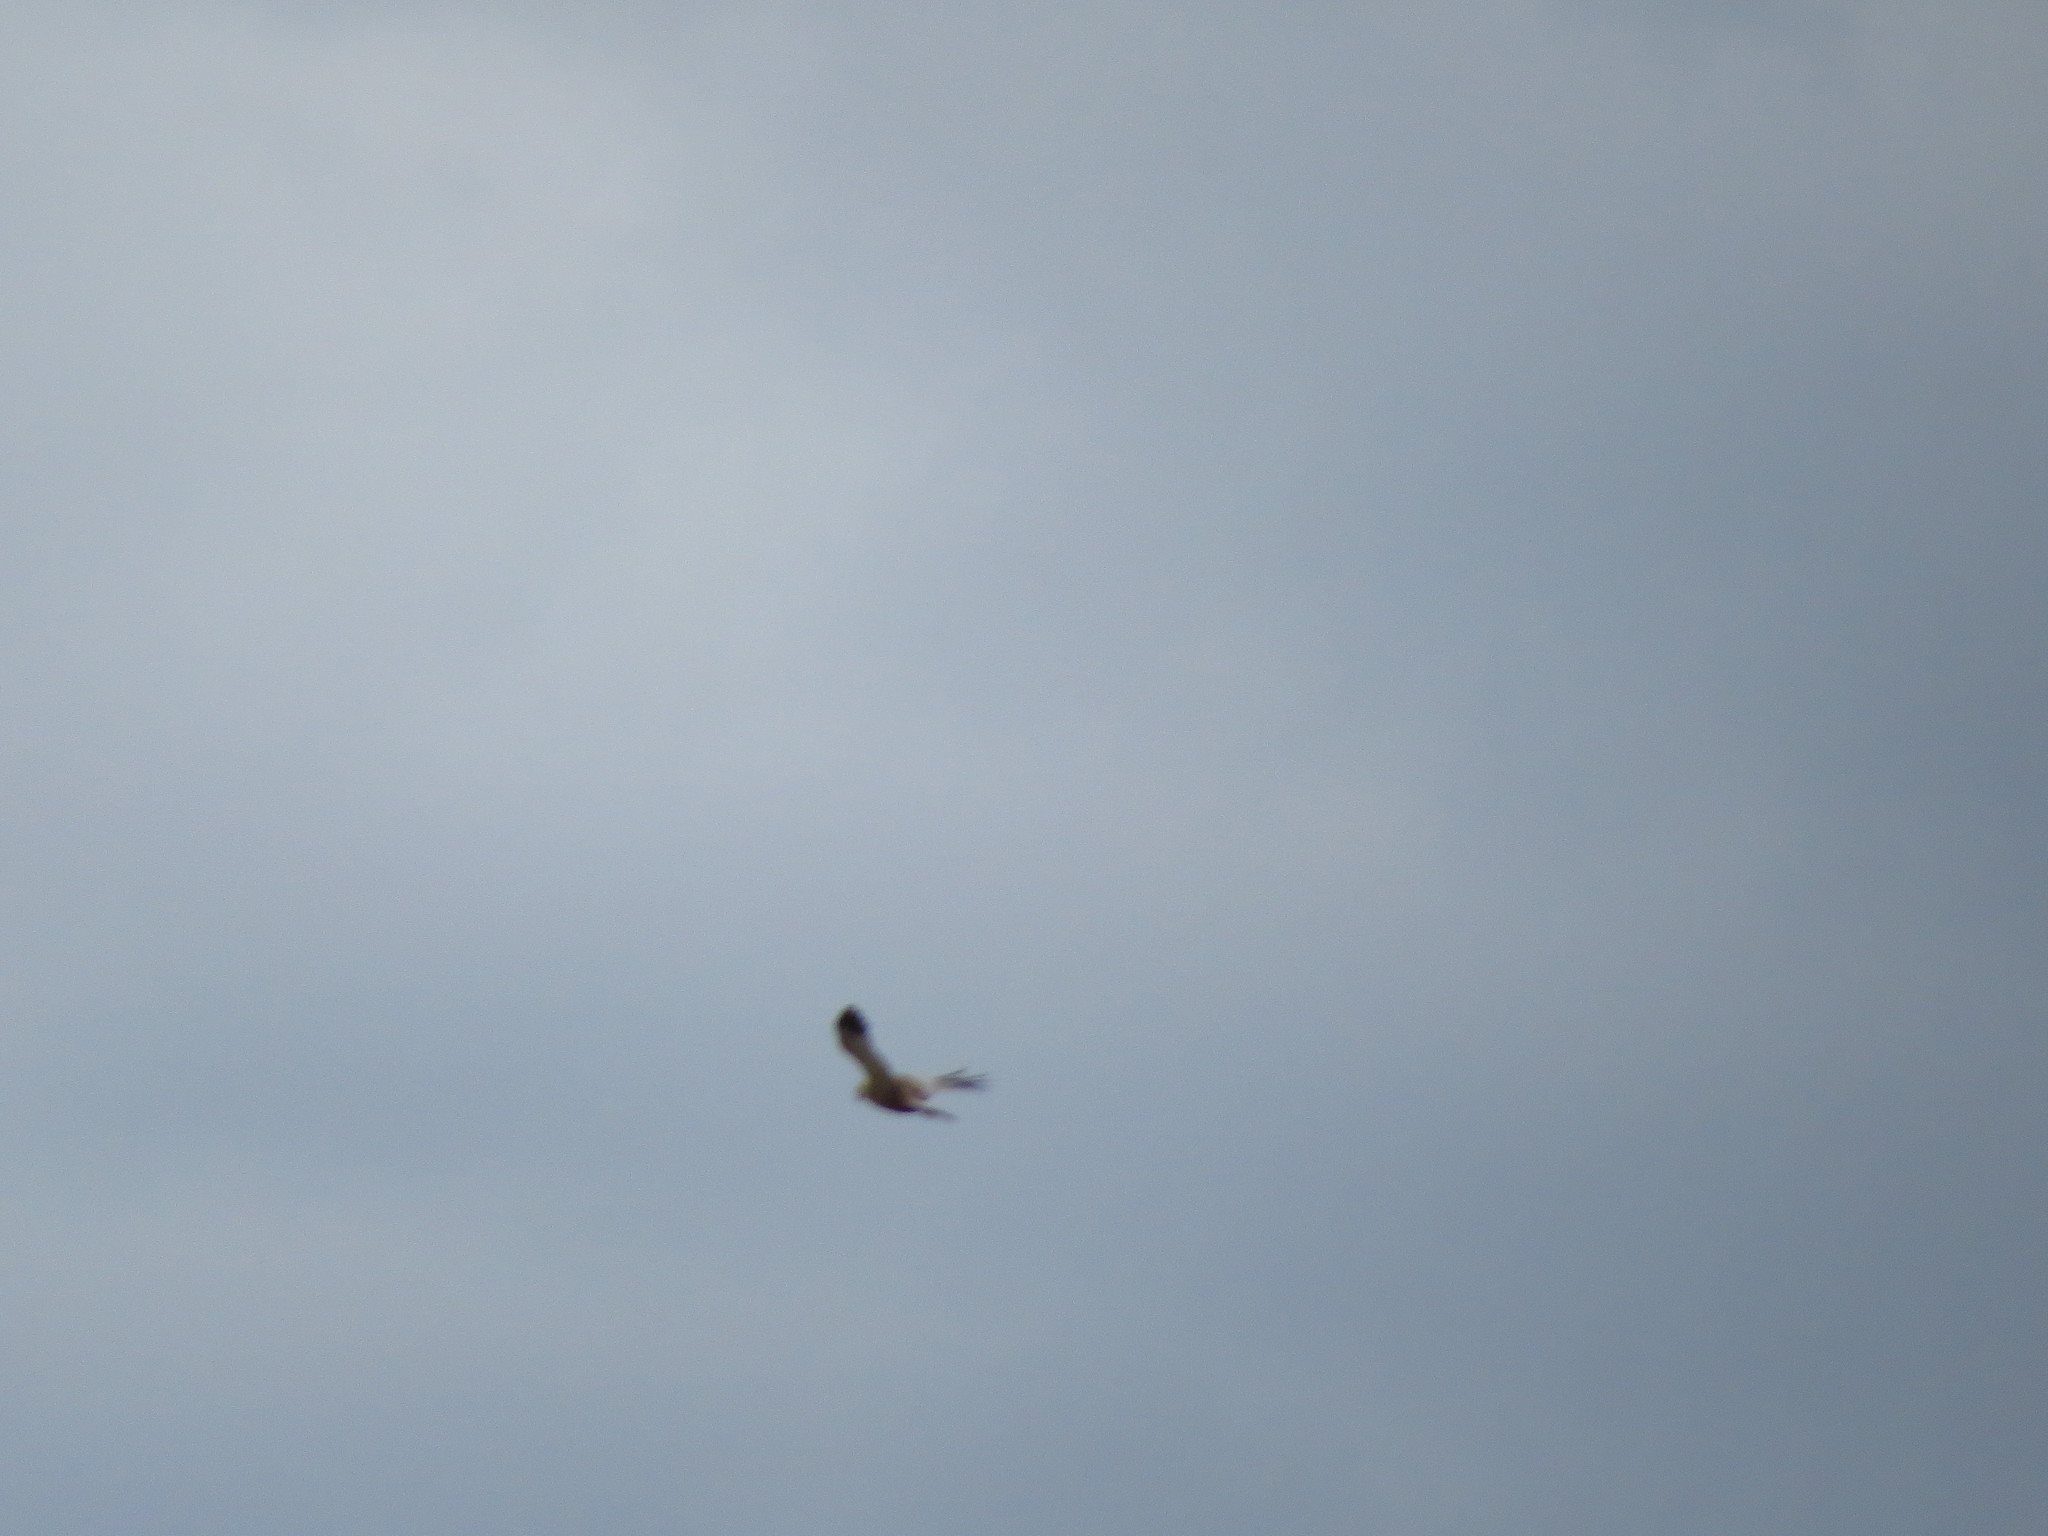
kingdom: Animalia
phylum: Chordata
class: Aves
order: Accipitriformes
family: Accipitridae
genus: Circus
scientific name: Circus aeruginosus
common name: Western marsh harrier
